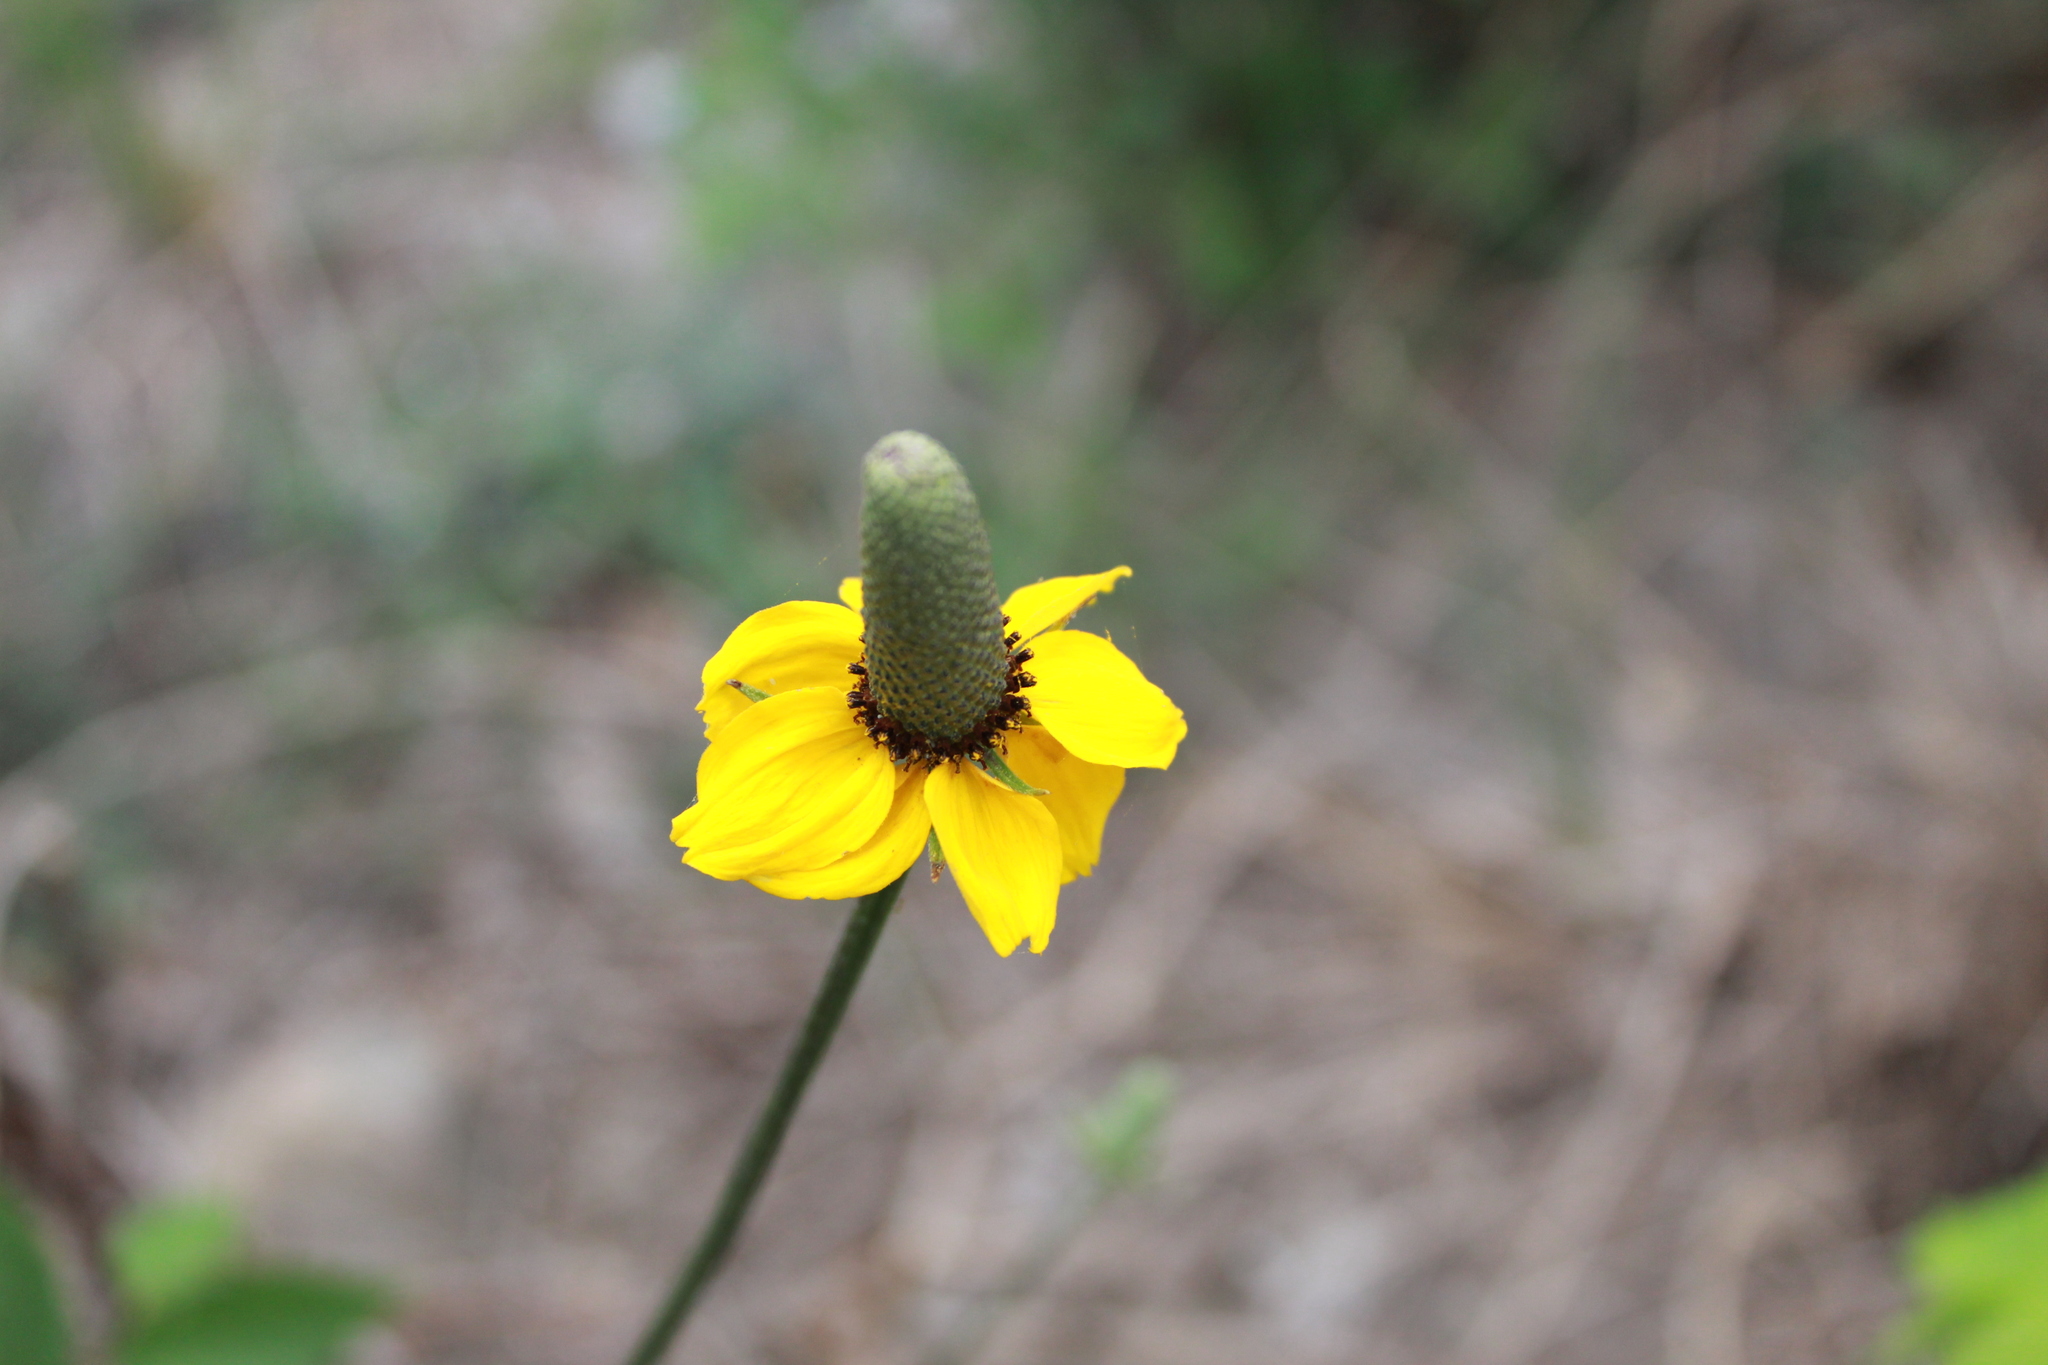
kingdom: Plantae
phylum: Tracheophyta
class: Magnoliopsida
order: Asterales
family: Asteraceae
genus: Ratibida
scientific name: Ratibida coahuilensis
